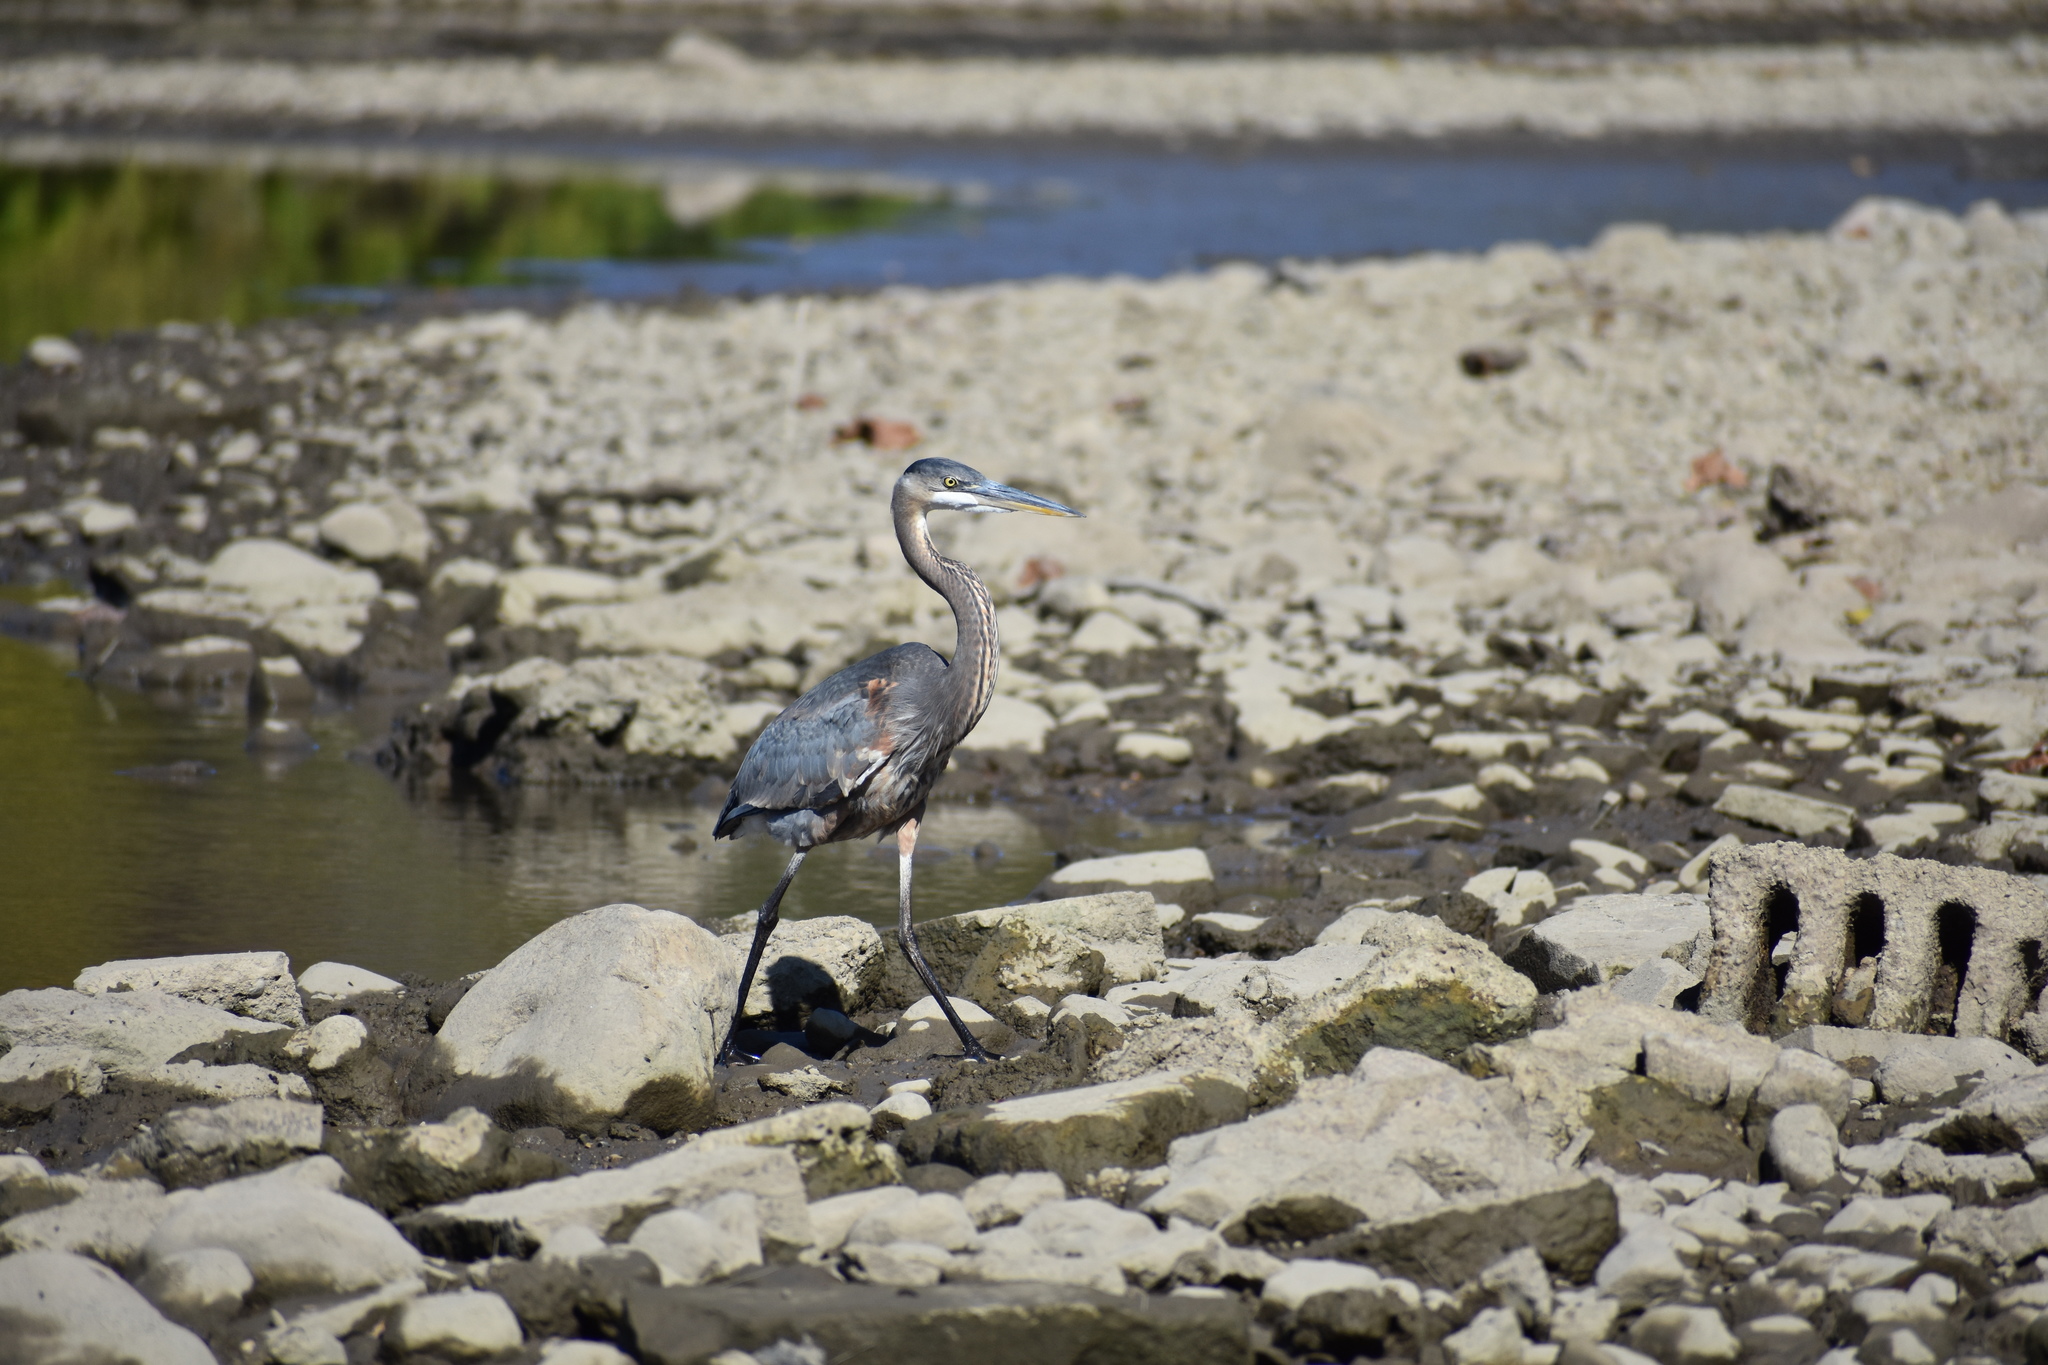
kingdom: Animalia
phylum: Chordata
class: Aves
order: Pelecaniformes
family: Ardeidae
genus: Ardea
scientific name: Ardea herodias
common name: Great blue heron
